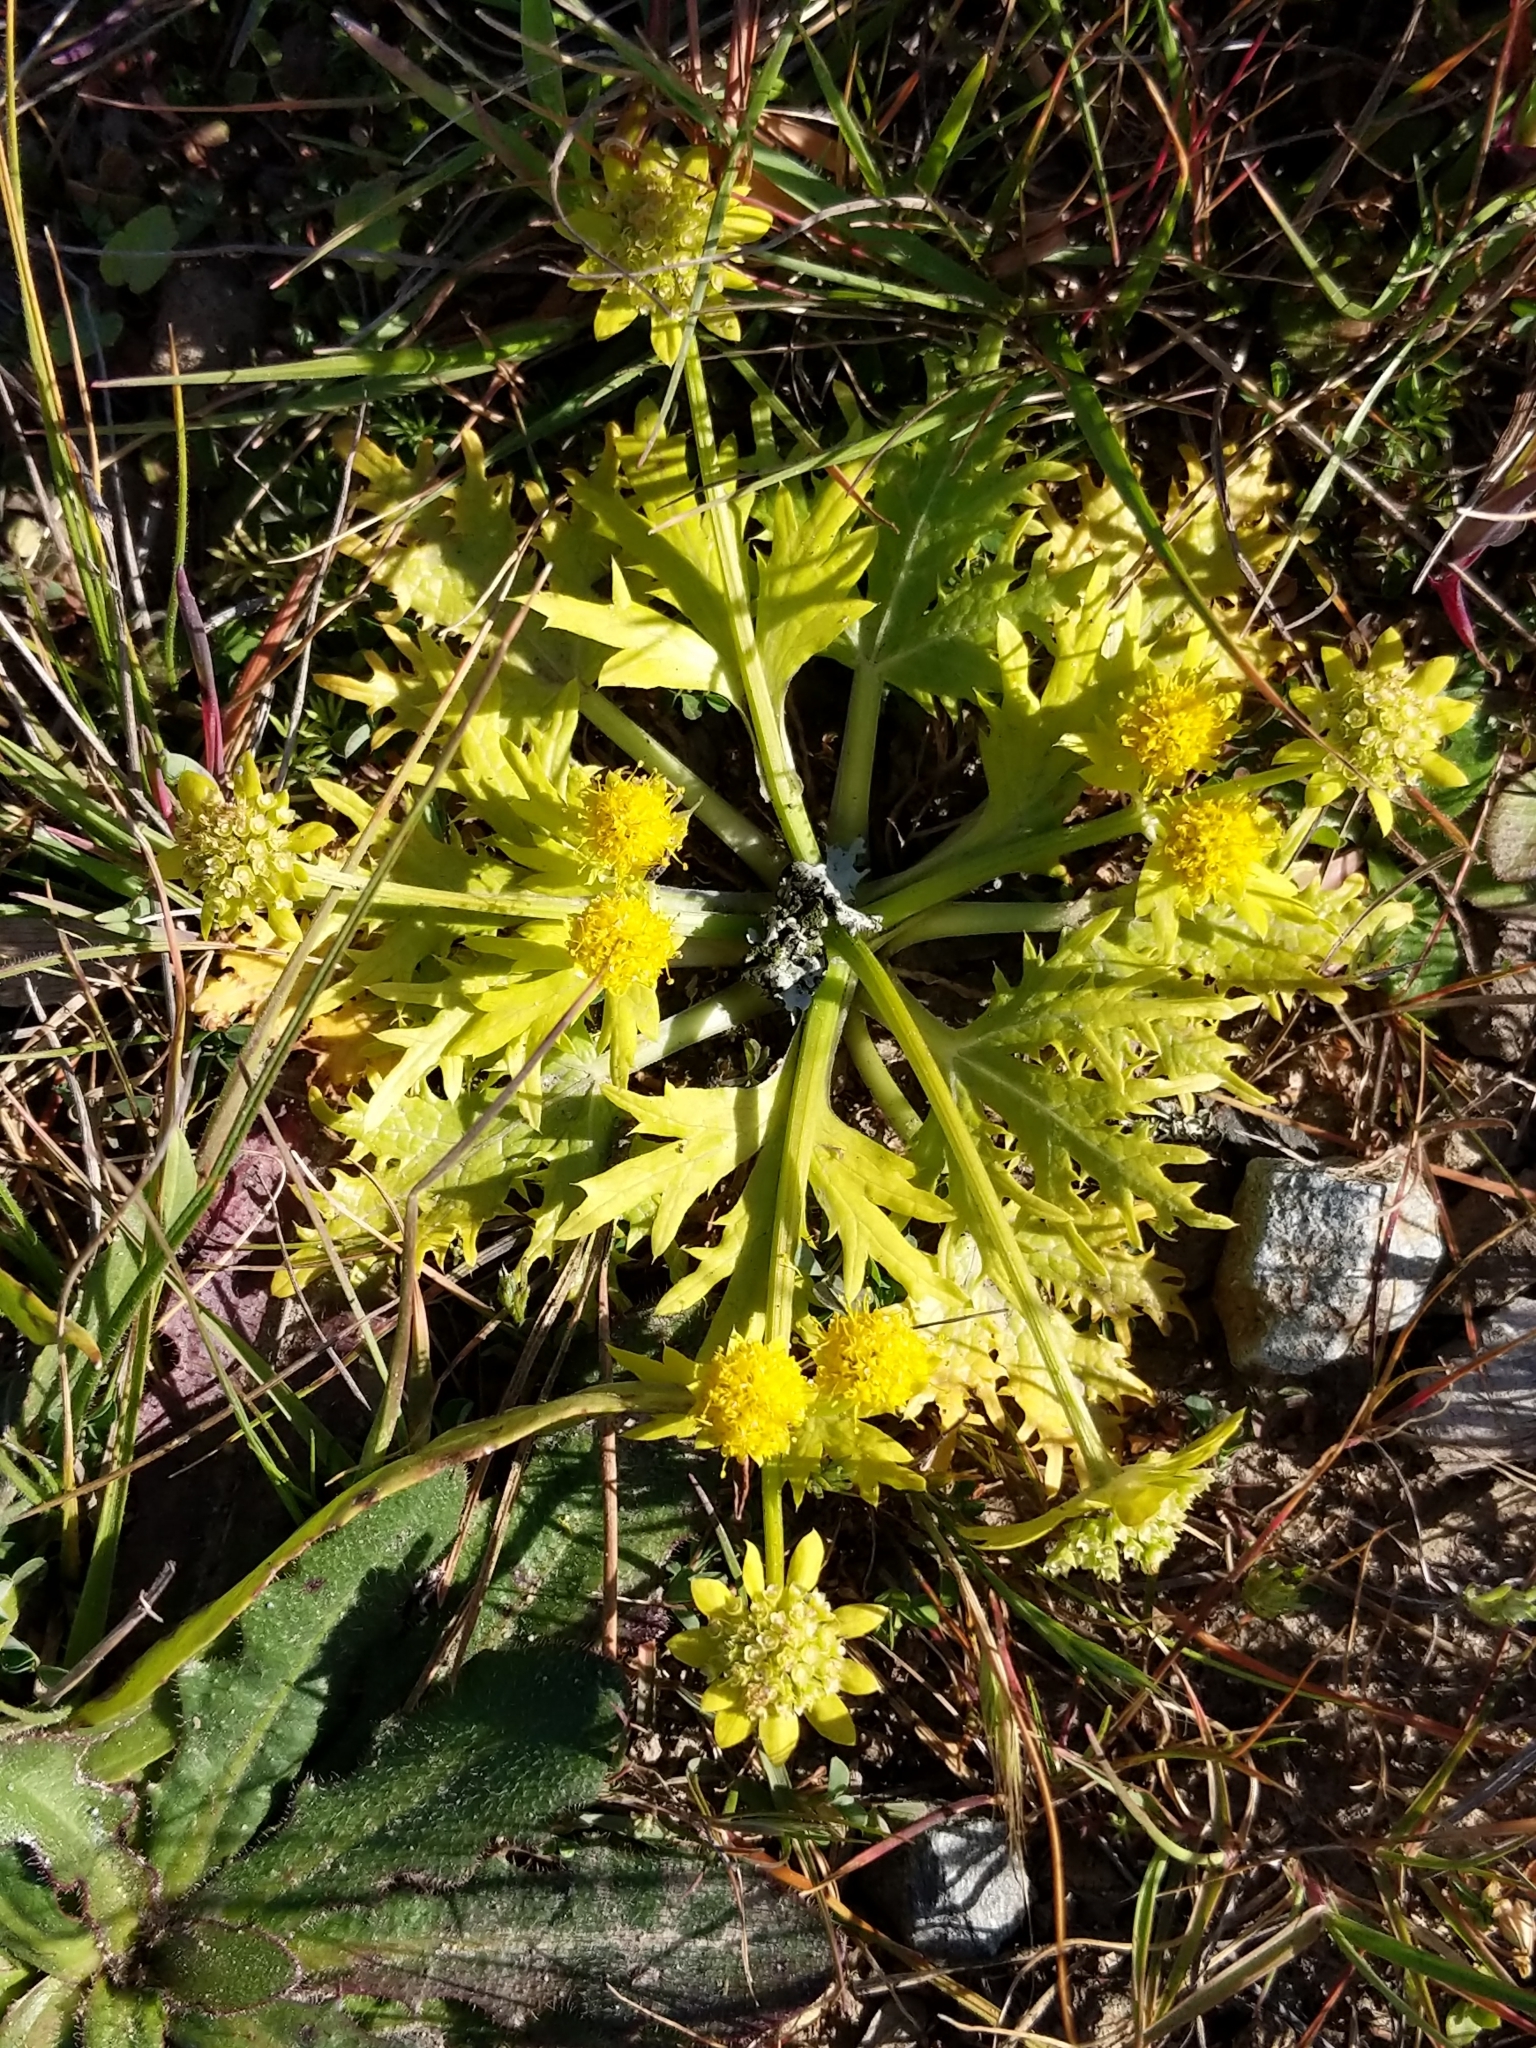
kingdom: Plantae
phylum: Tracheophyta
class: Magnoliopsida
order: Apiales
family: Apiaceae
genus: Sanicula
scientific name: Sanicula arctopoides
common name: Footsteps-of-spring
